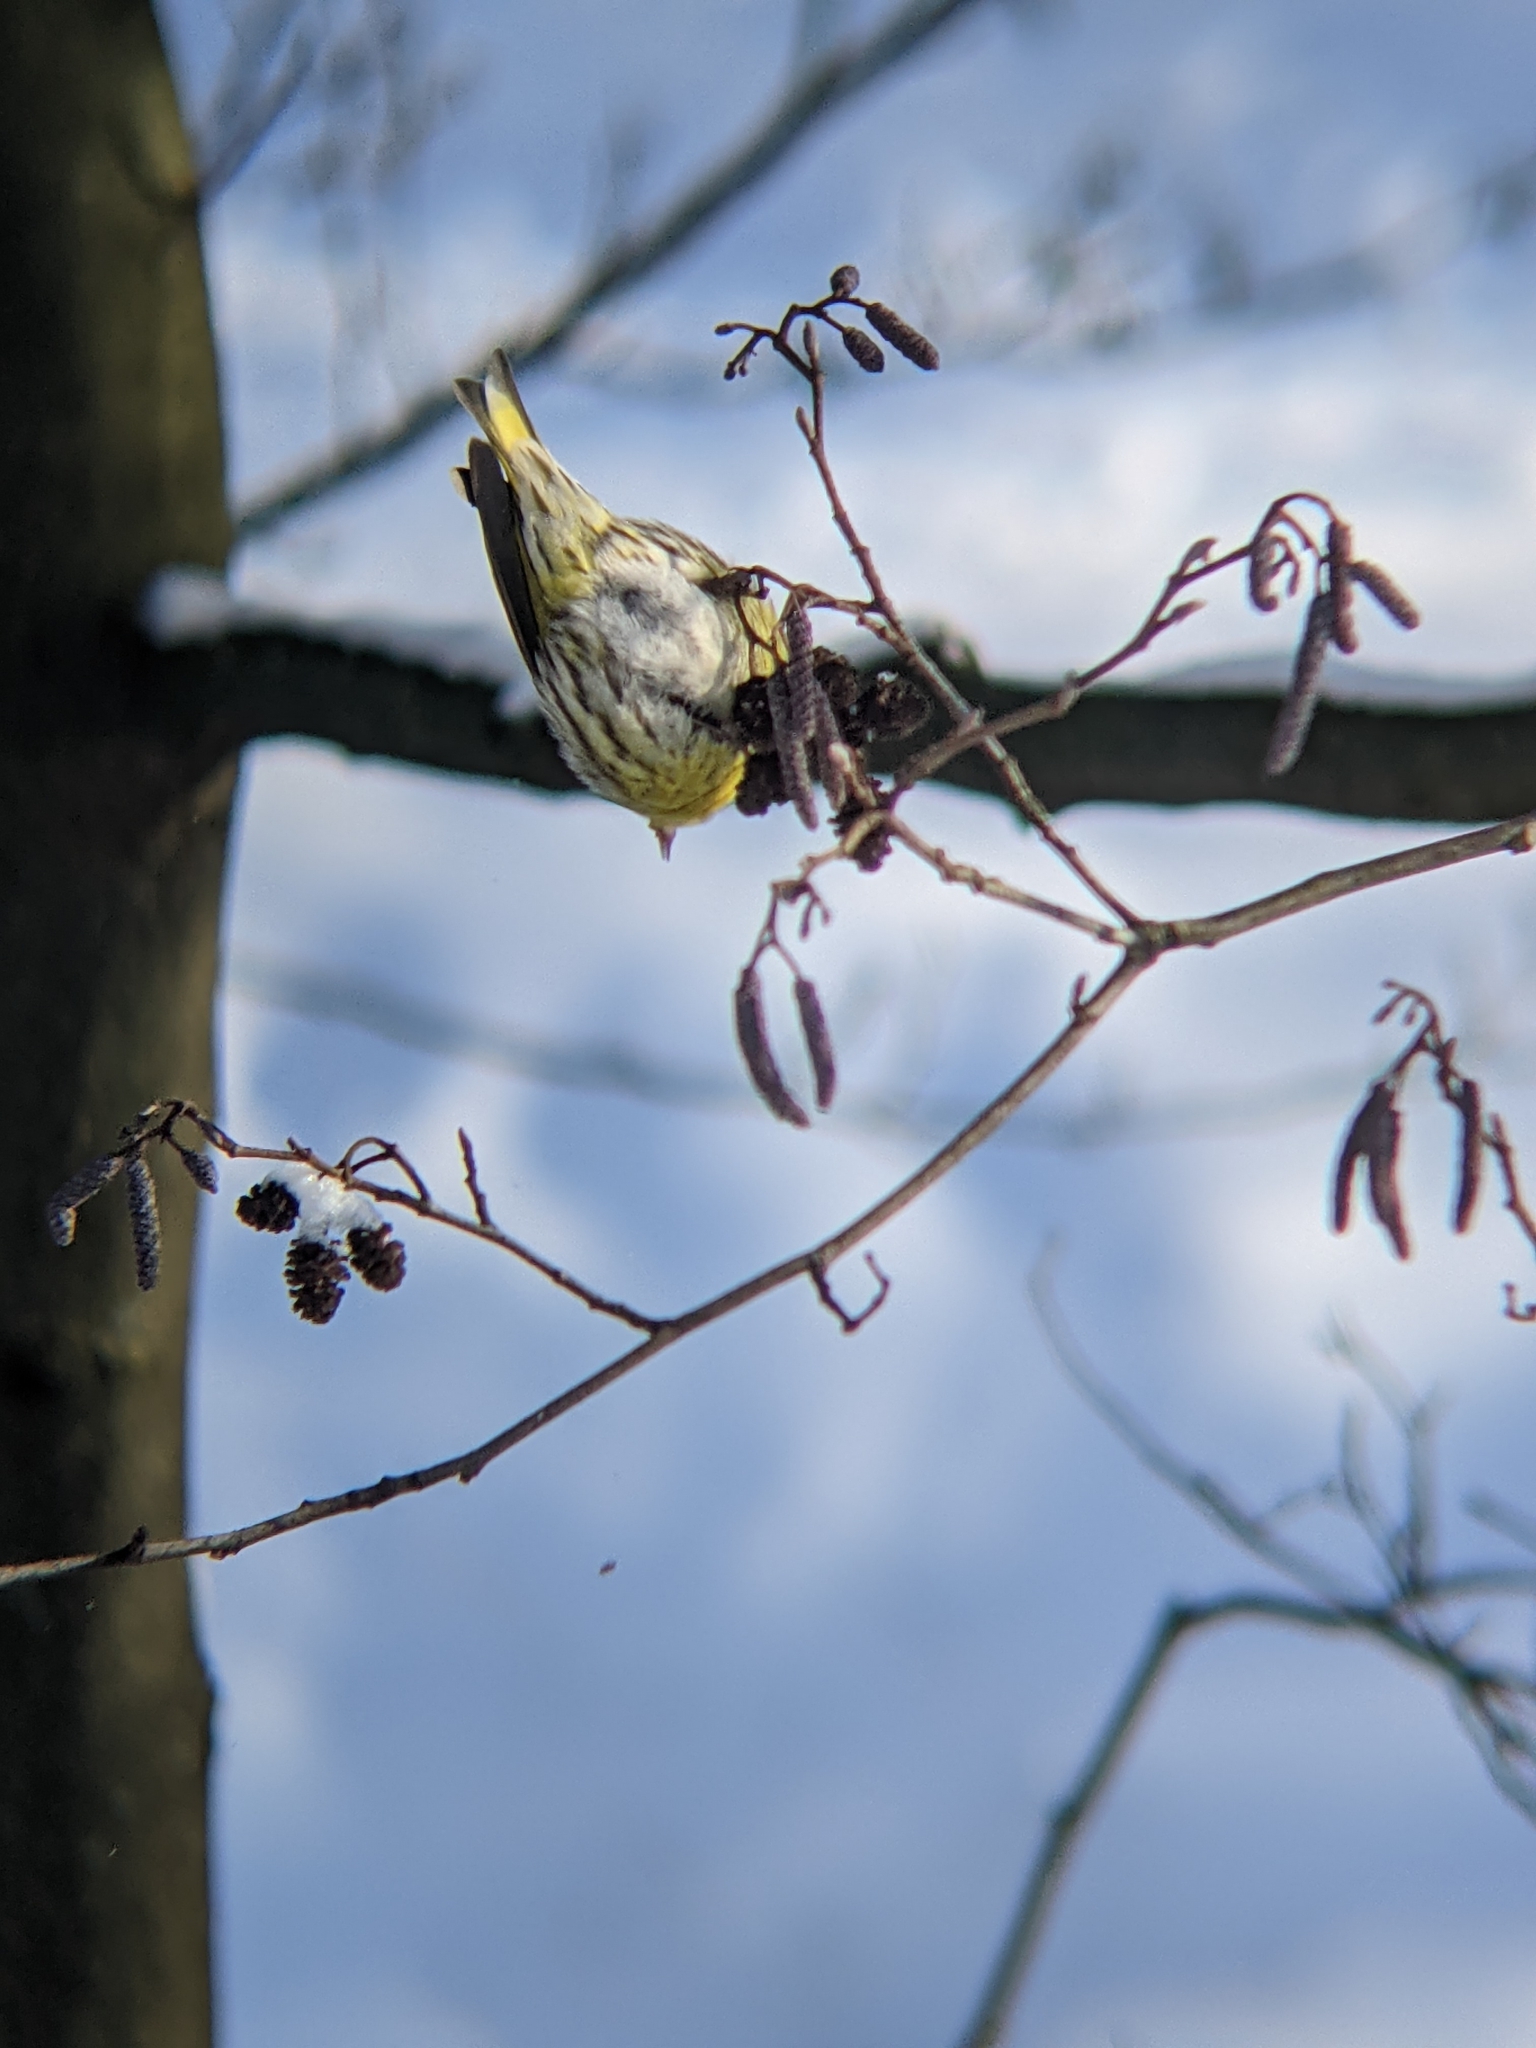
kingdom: Animalia
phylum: Chordata
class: Aves
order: Passeriformes
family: Fringillidae
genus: Spinus
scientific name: Spinus spinus
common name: Eurasian siskin
